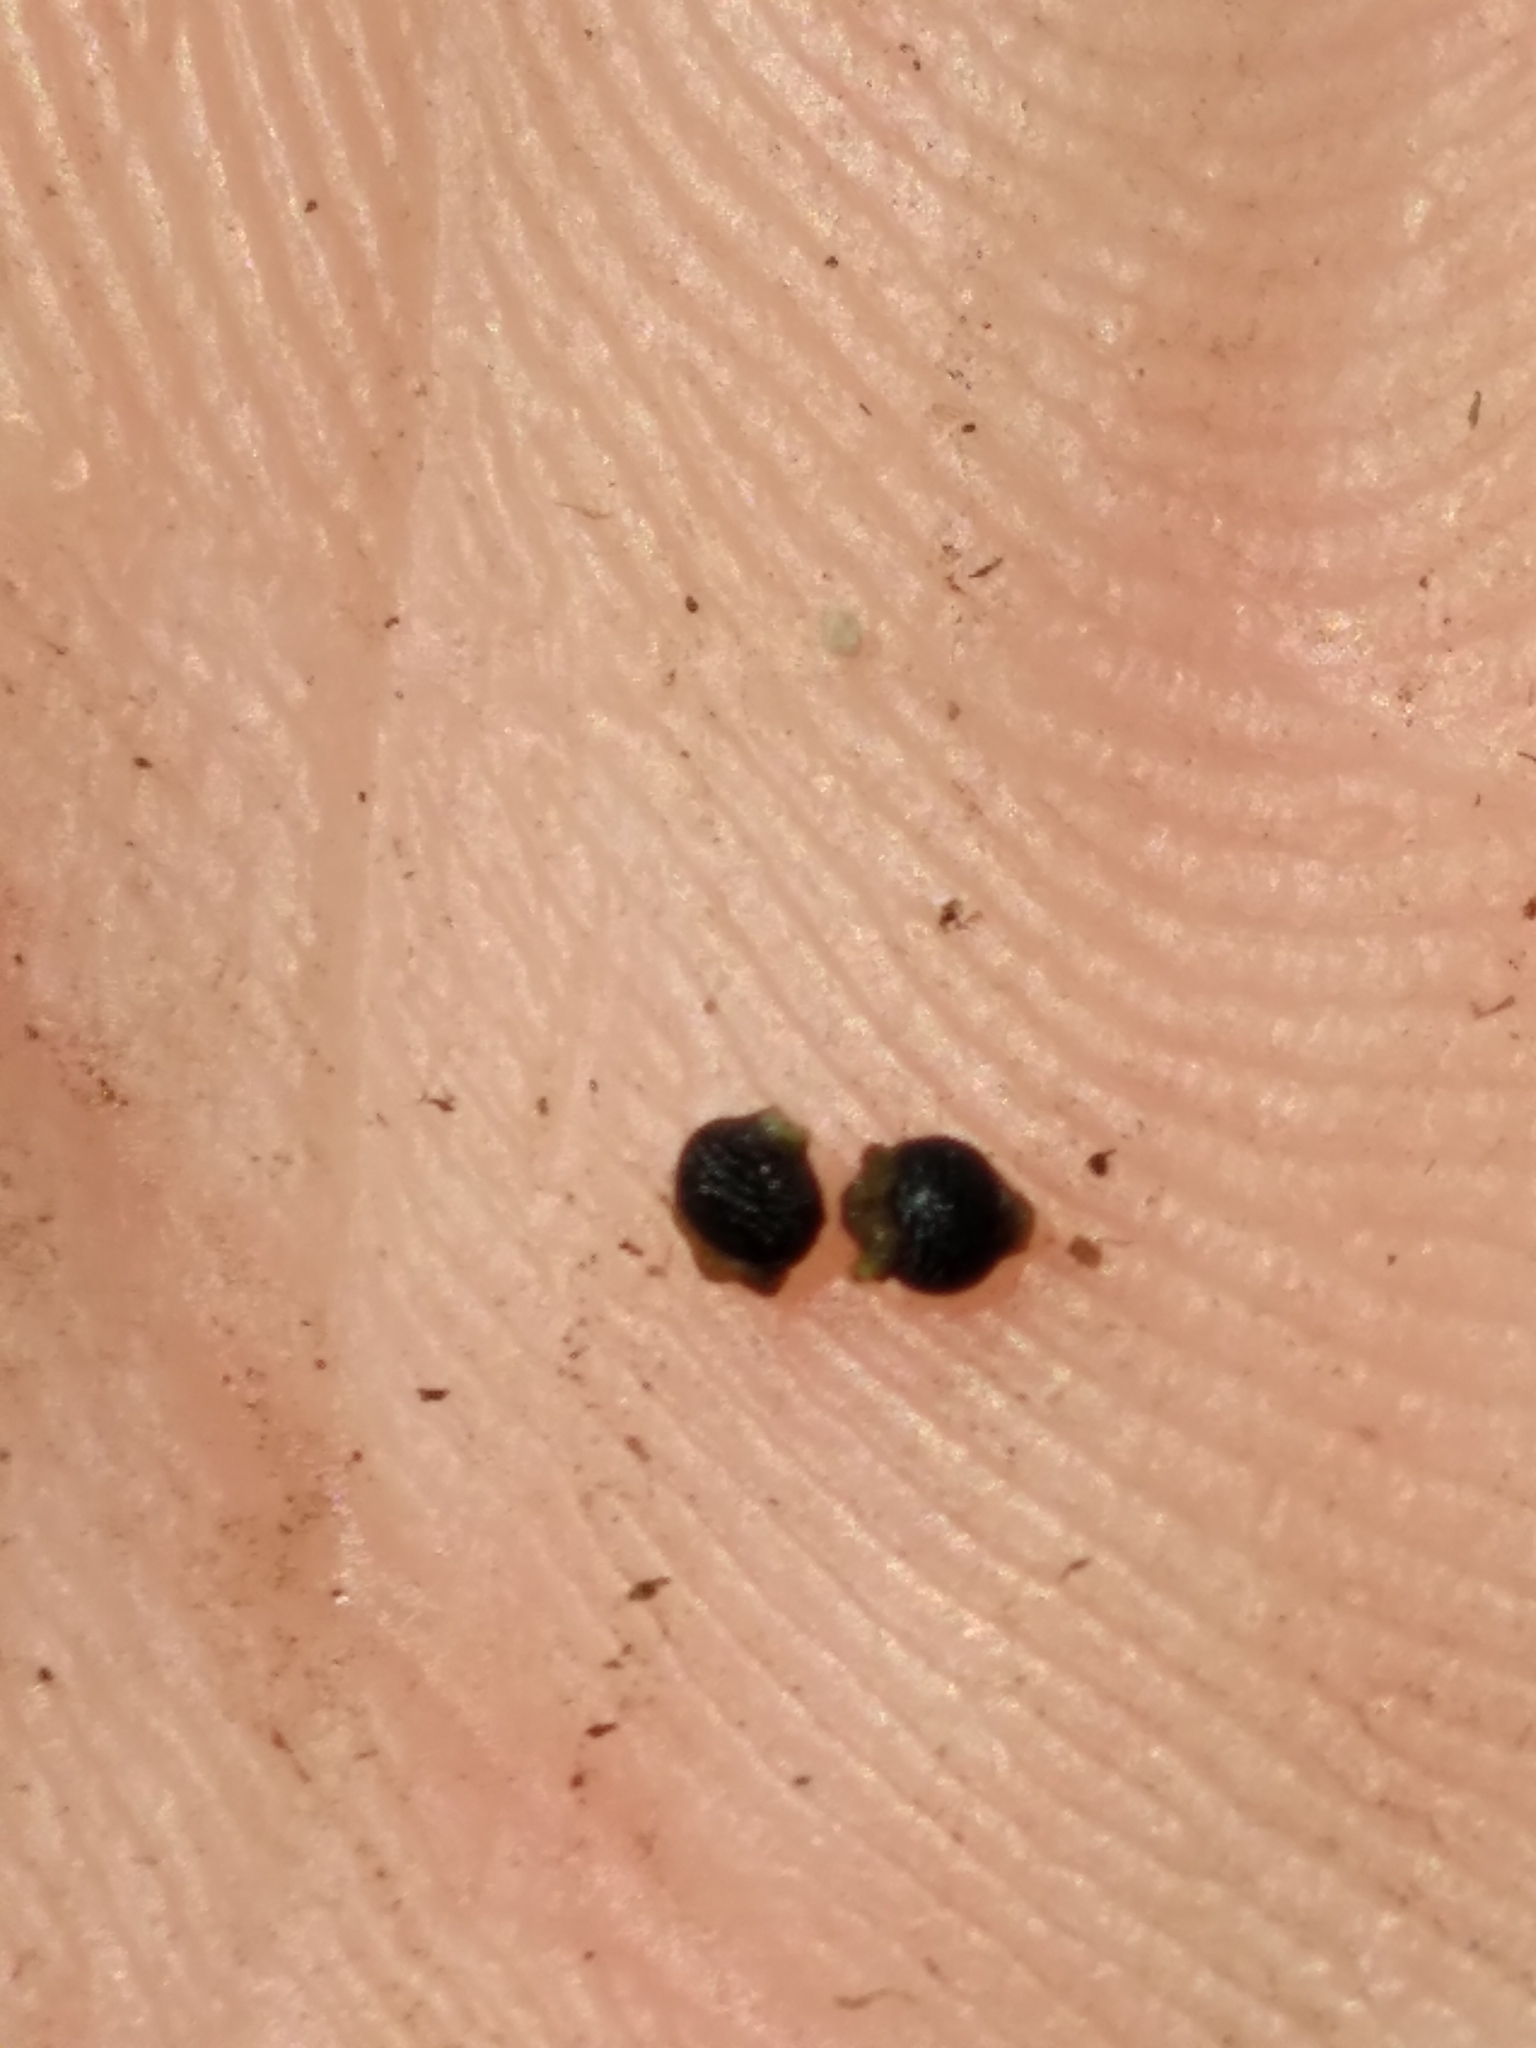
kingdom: Plantae
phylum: Tracheophyta
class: Liliopsida
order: Poales
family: Cyperaceae
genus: Rhynchospora
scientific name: Rhynchospora eximia
